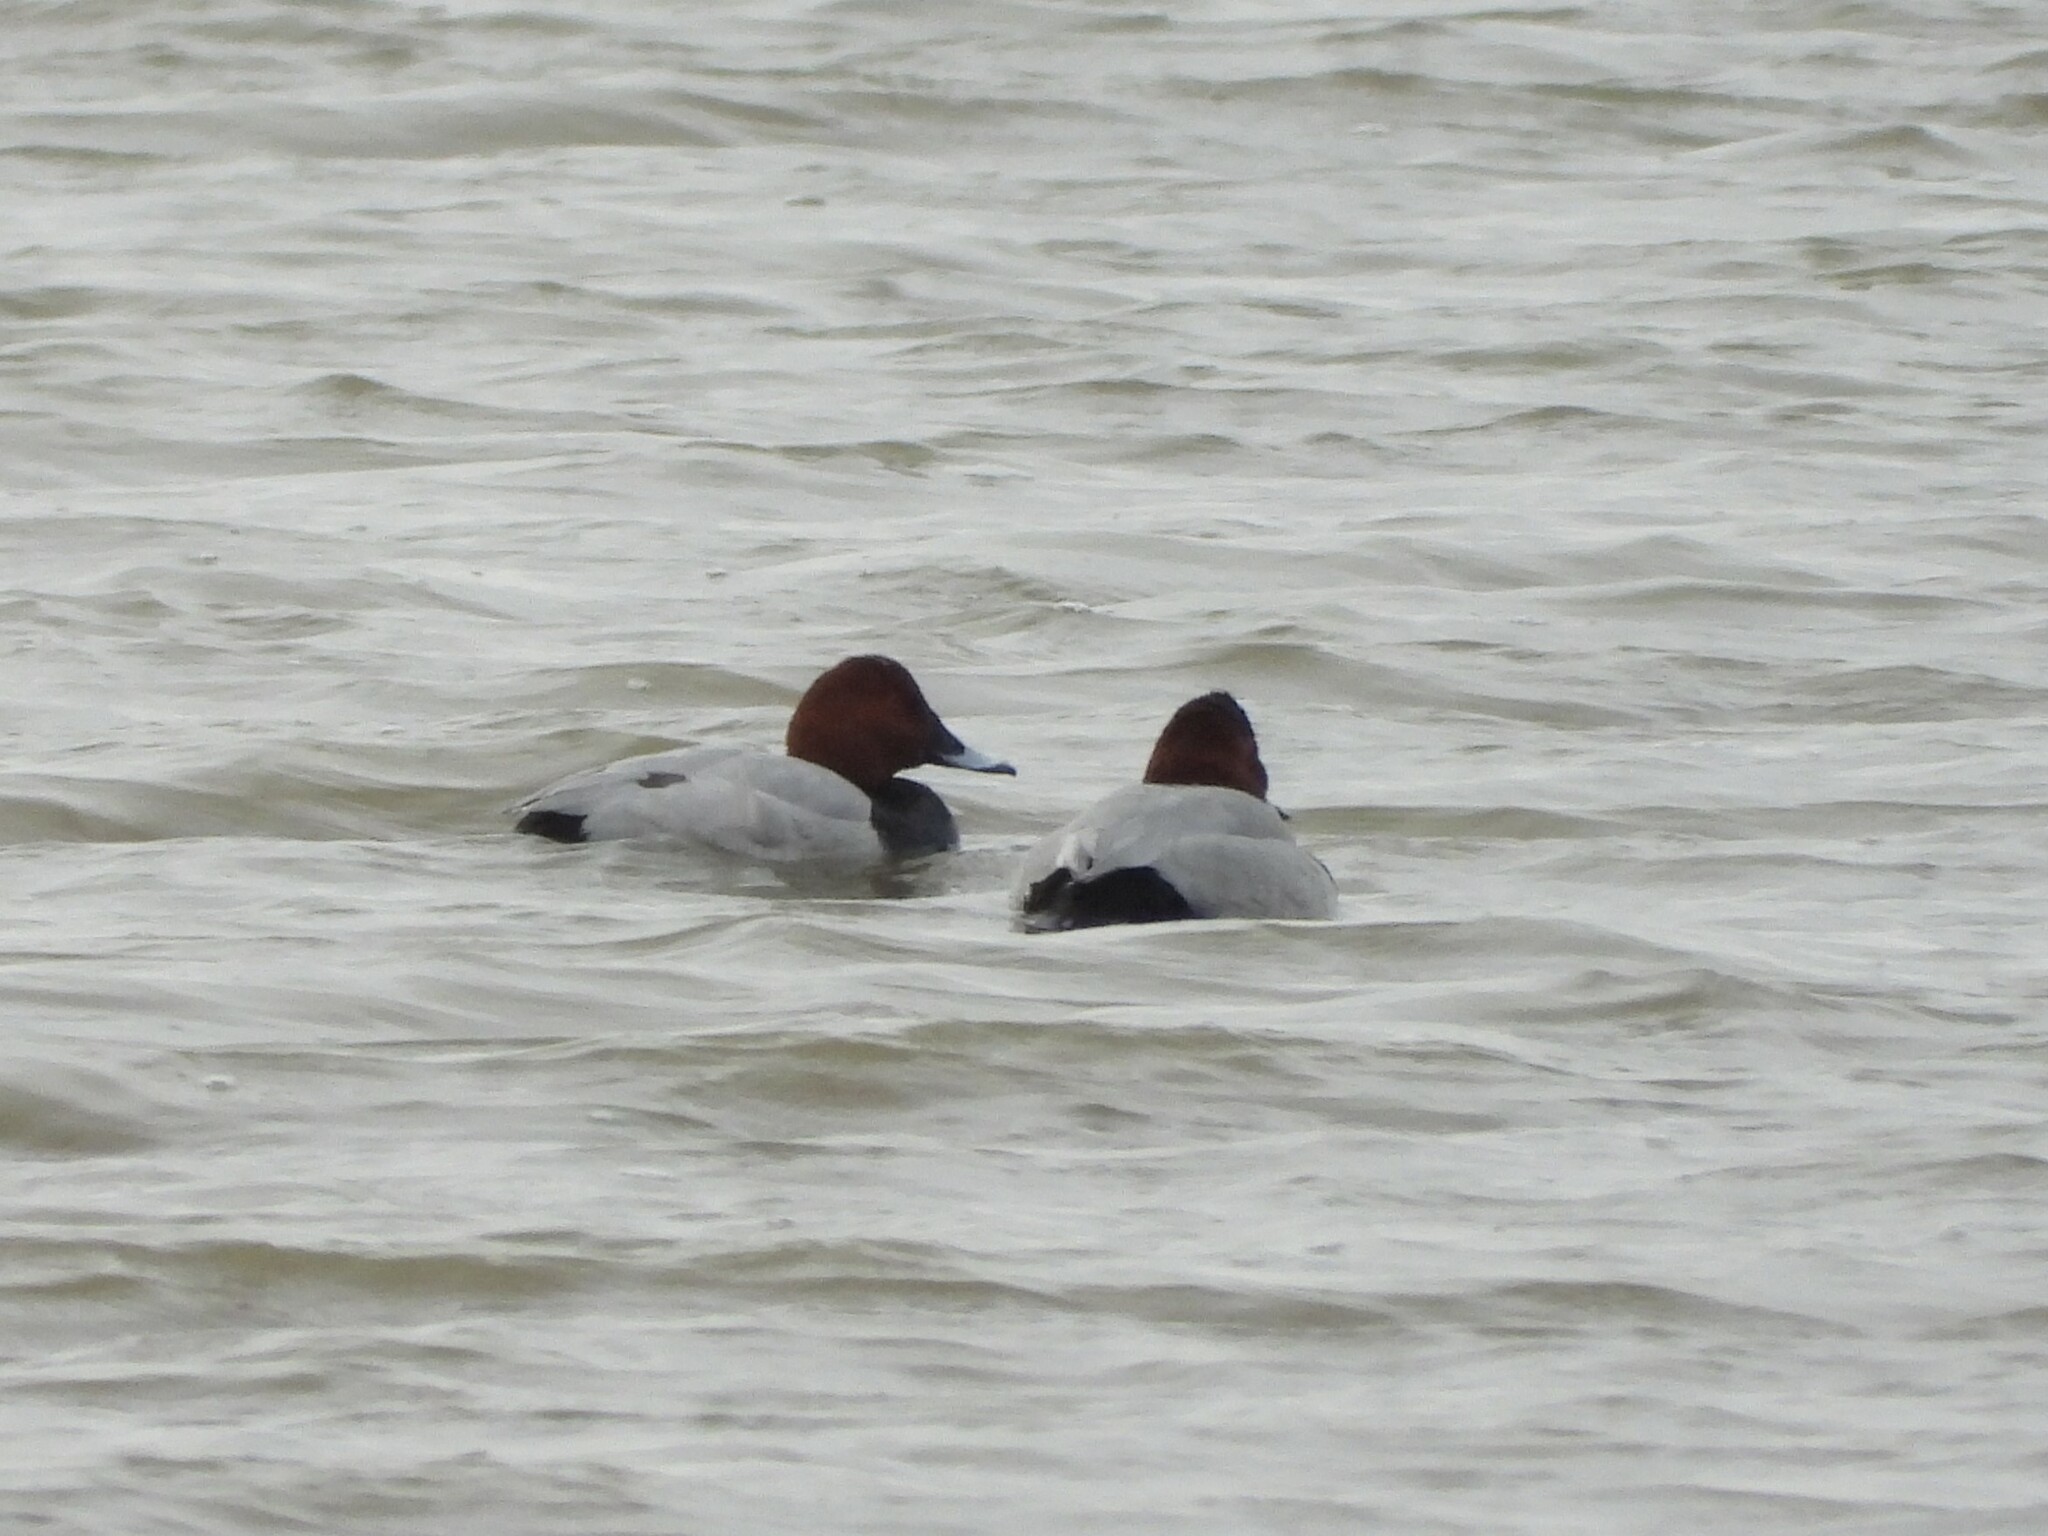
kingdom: Animalia
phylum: Chordata
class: Aves
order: Anseriformes
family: Anatidae
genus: Aythya
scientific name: Aythya ferina
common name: Common pochard
